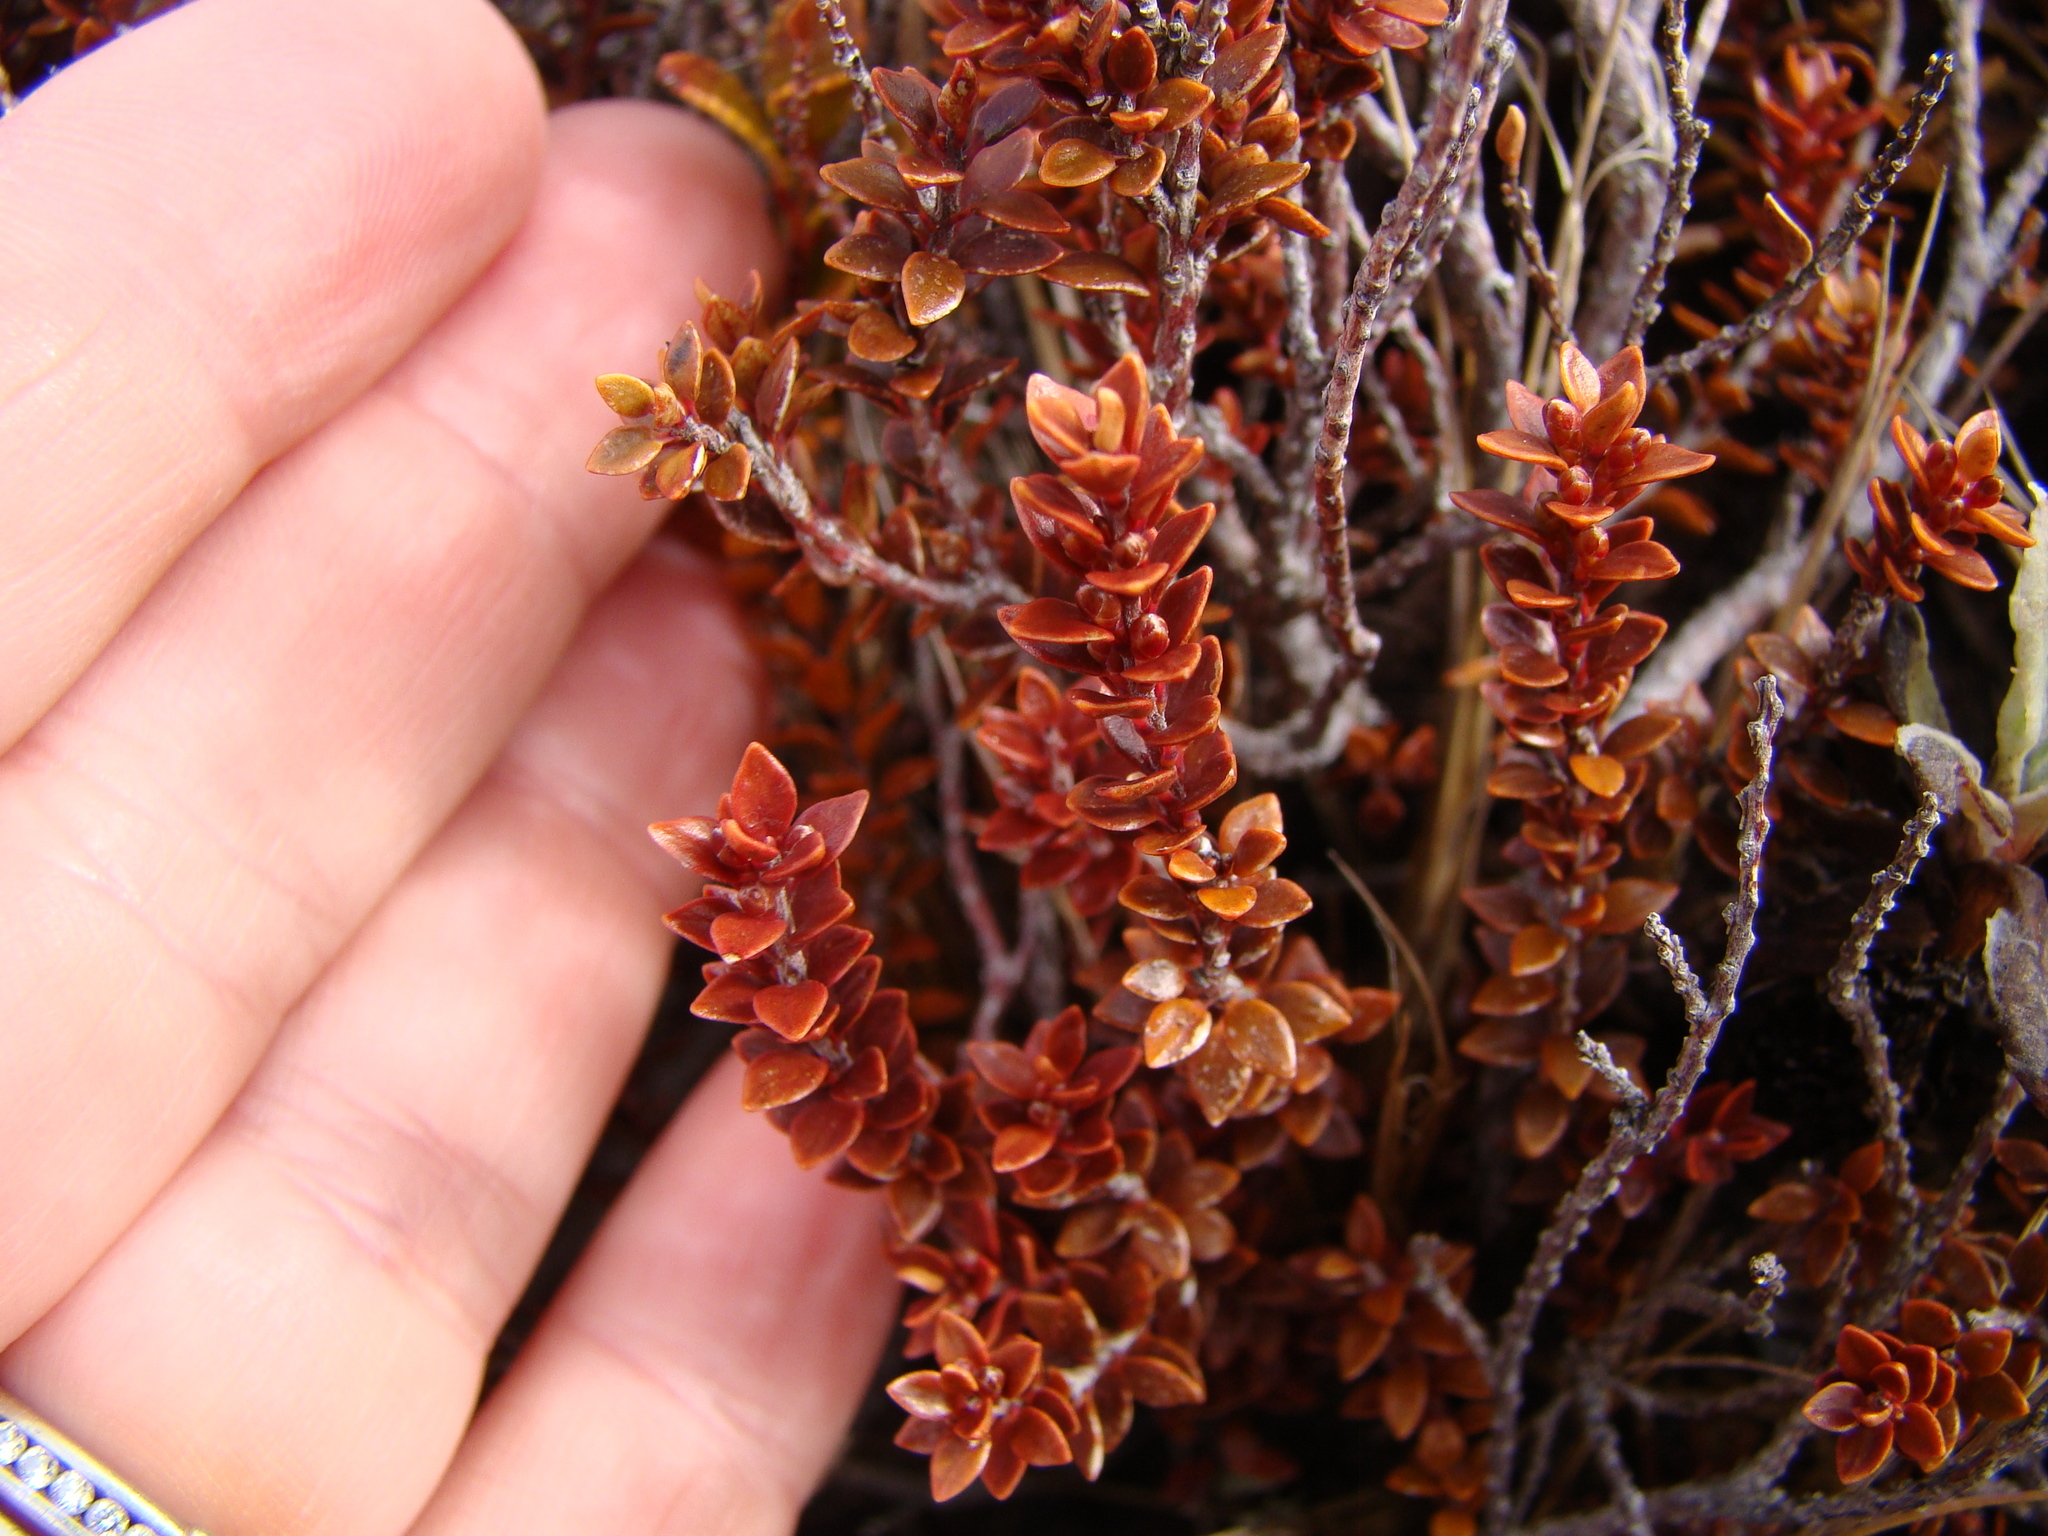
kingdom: Plantae
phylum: Tracheophyta
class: Magnoliopsida
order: Ericales
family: Ericaceae
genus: Epacris
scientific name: Epacris alpina
